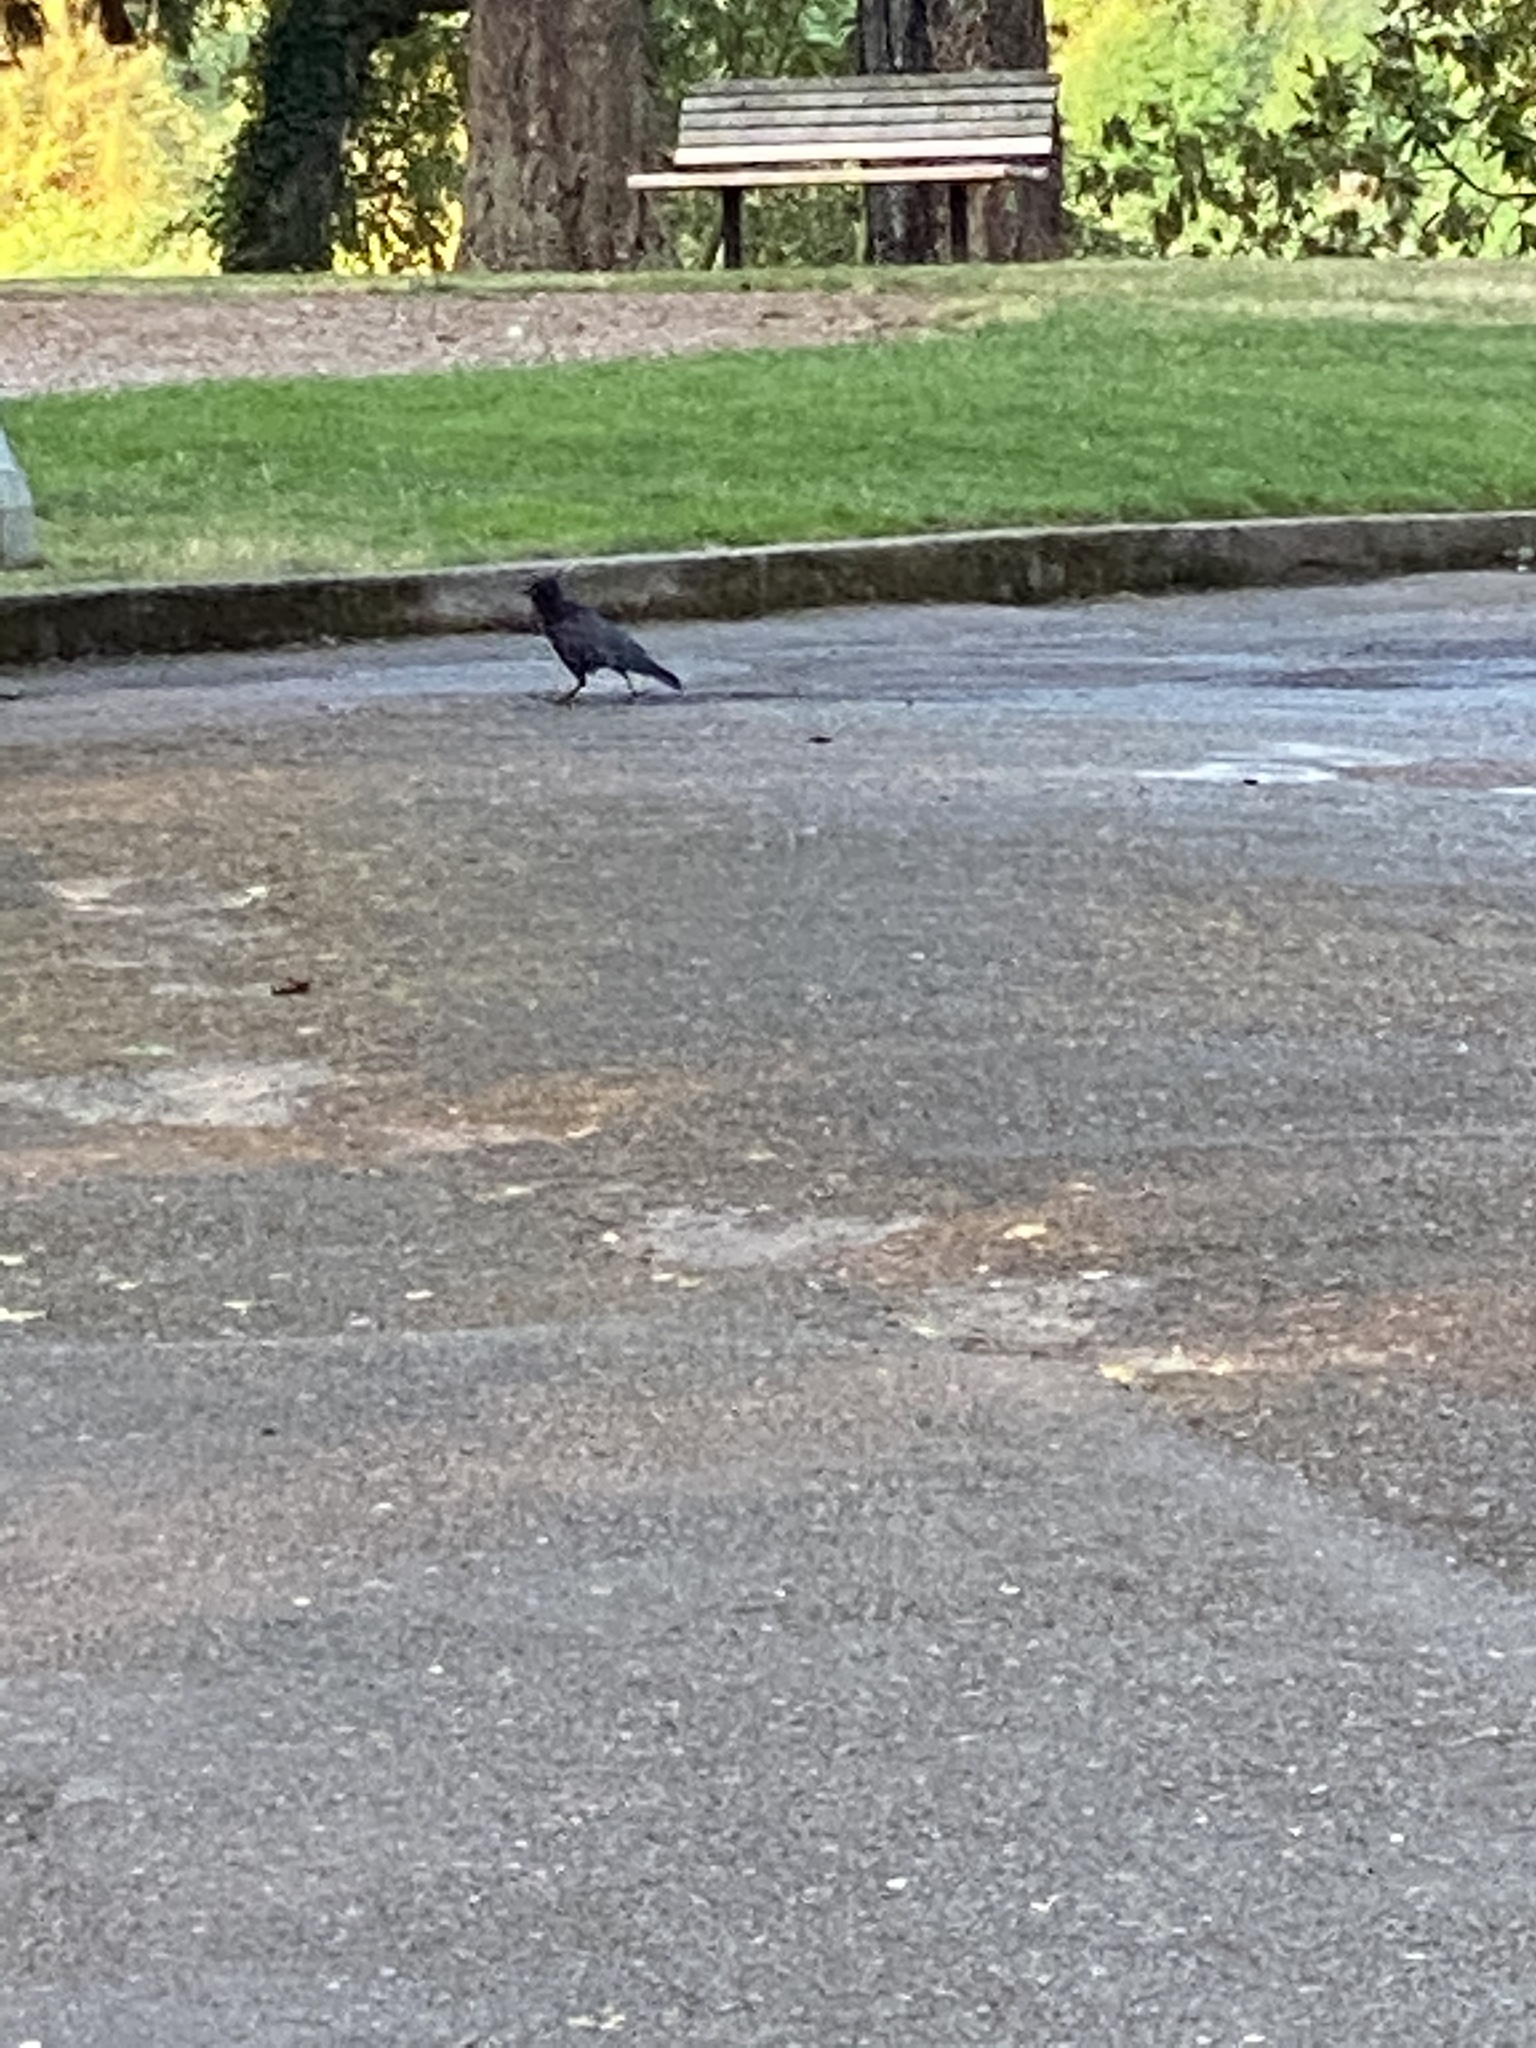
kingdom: Animalia
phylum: Chordata
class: Aves
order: Passeriformes
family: Corvidae
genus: Corvus
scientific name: Corvus brachyrhynchos
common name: American crow
